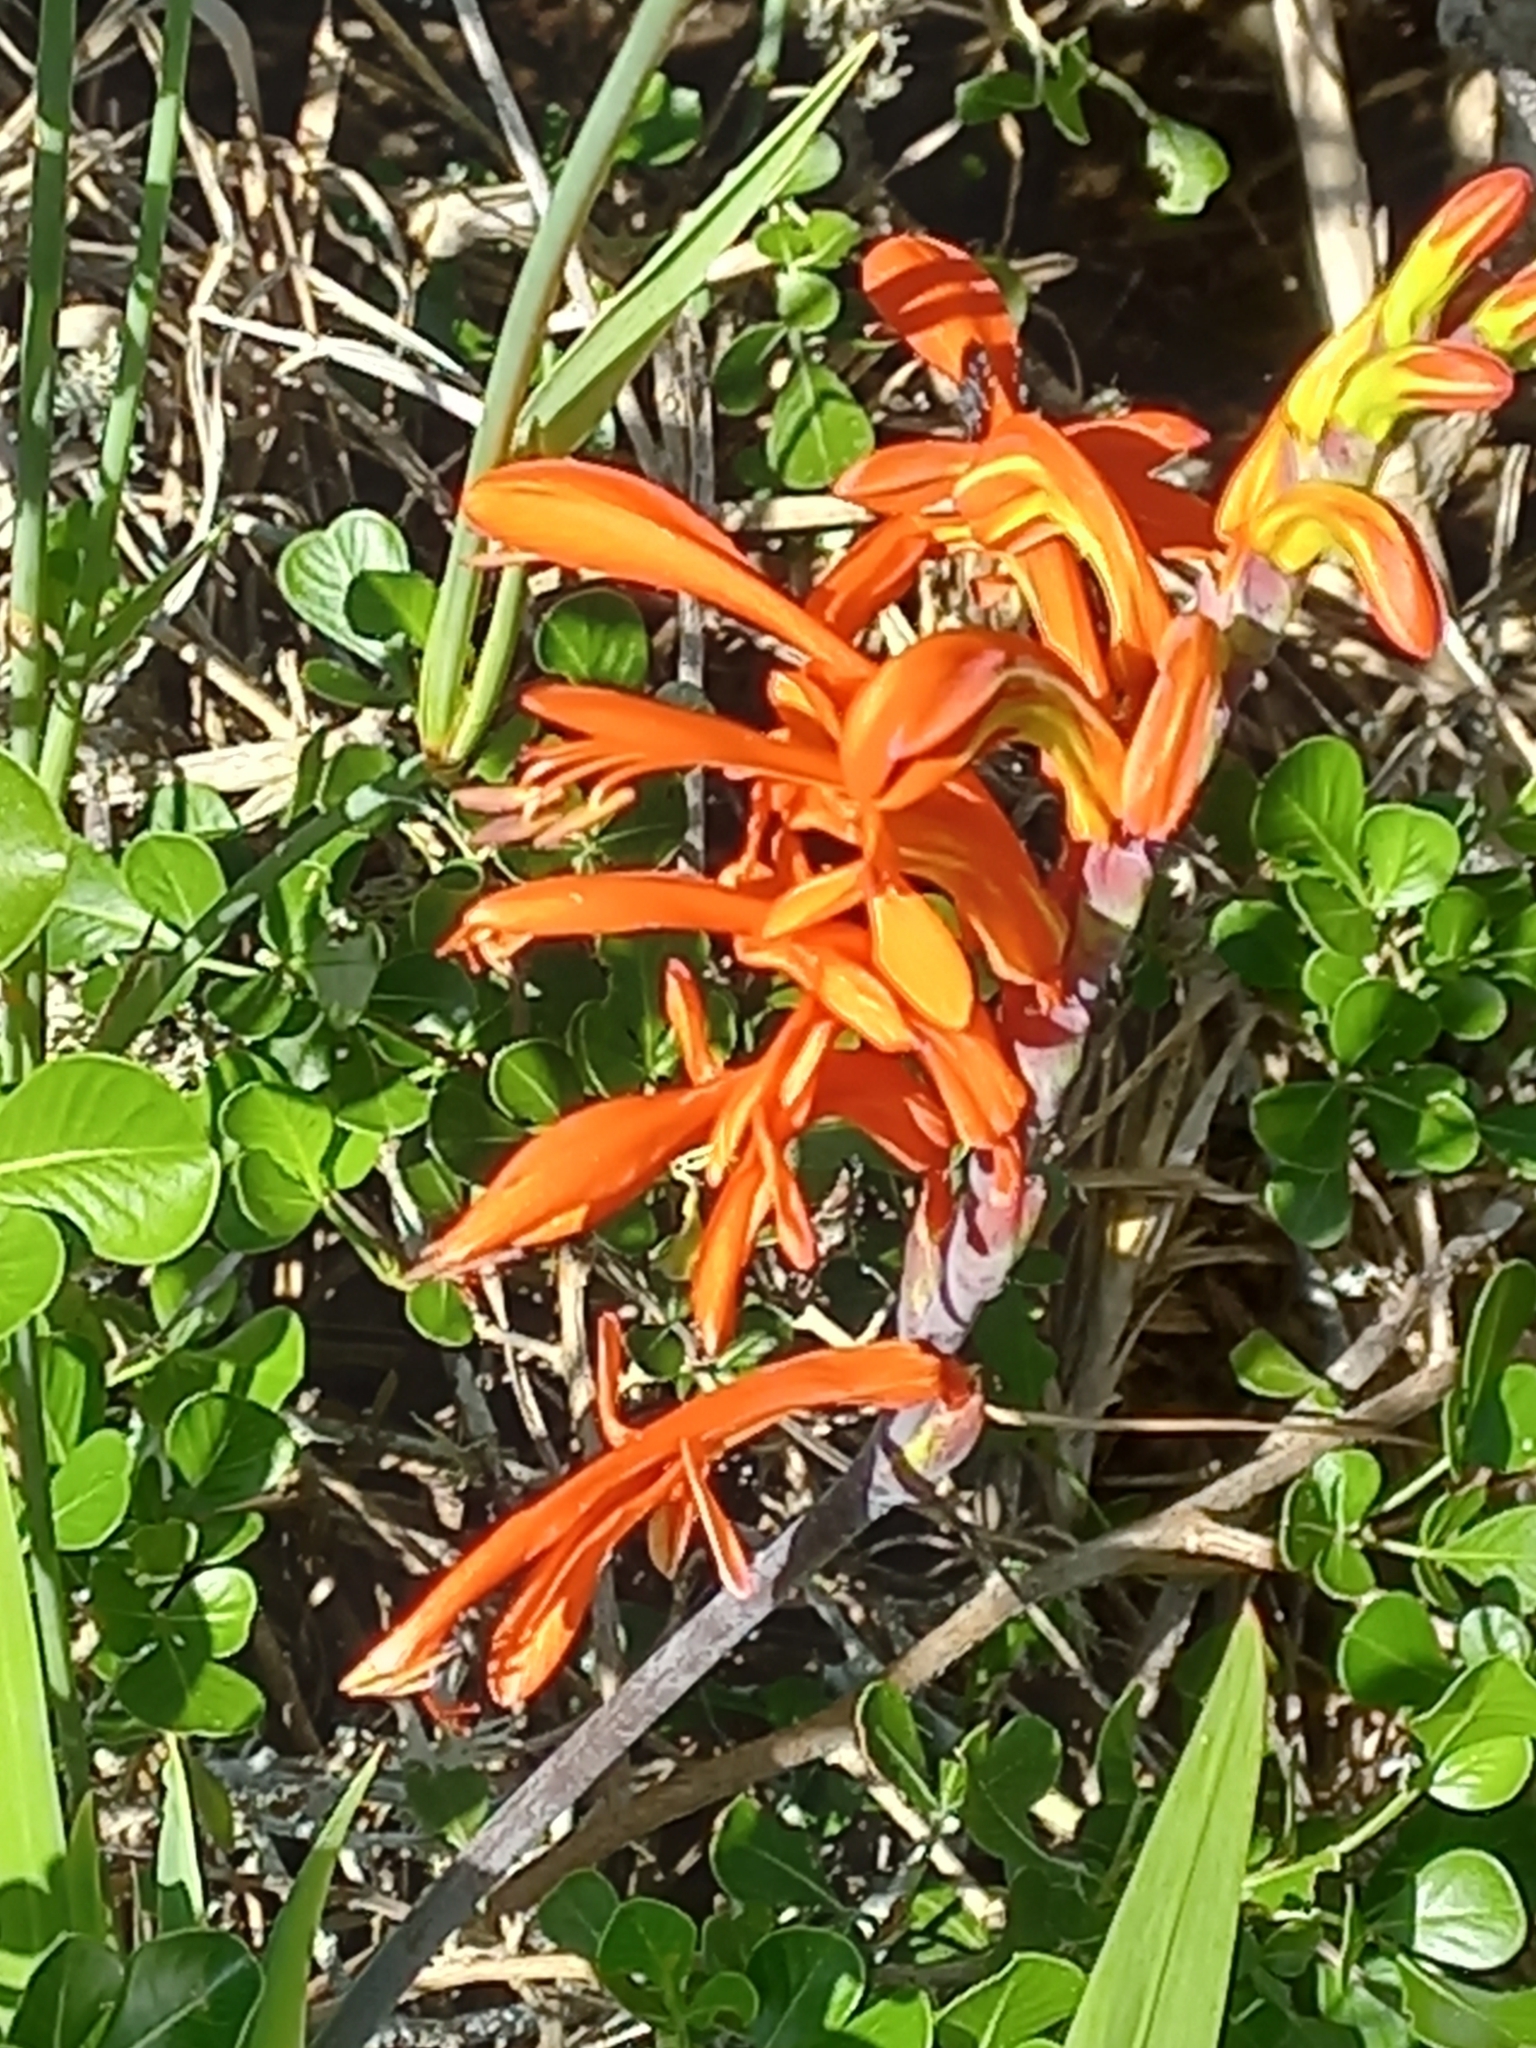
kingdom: Plantae
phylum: Tracheophyta
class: Liliopsida
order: Asparagales
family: Iridaceae
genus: Chasmanthe
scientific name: Chasmanthe aethiopica
